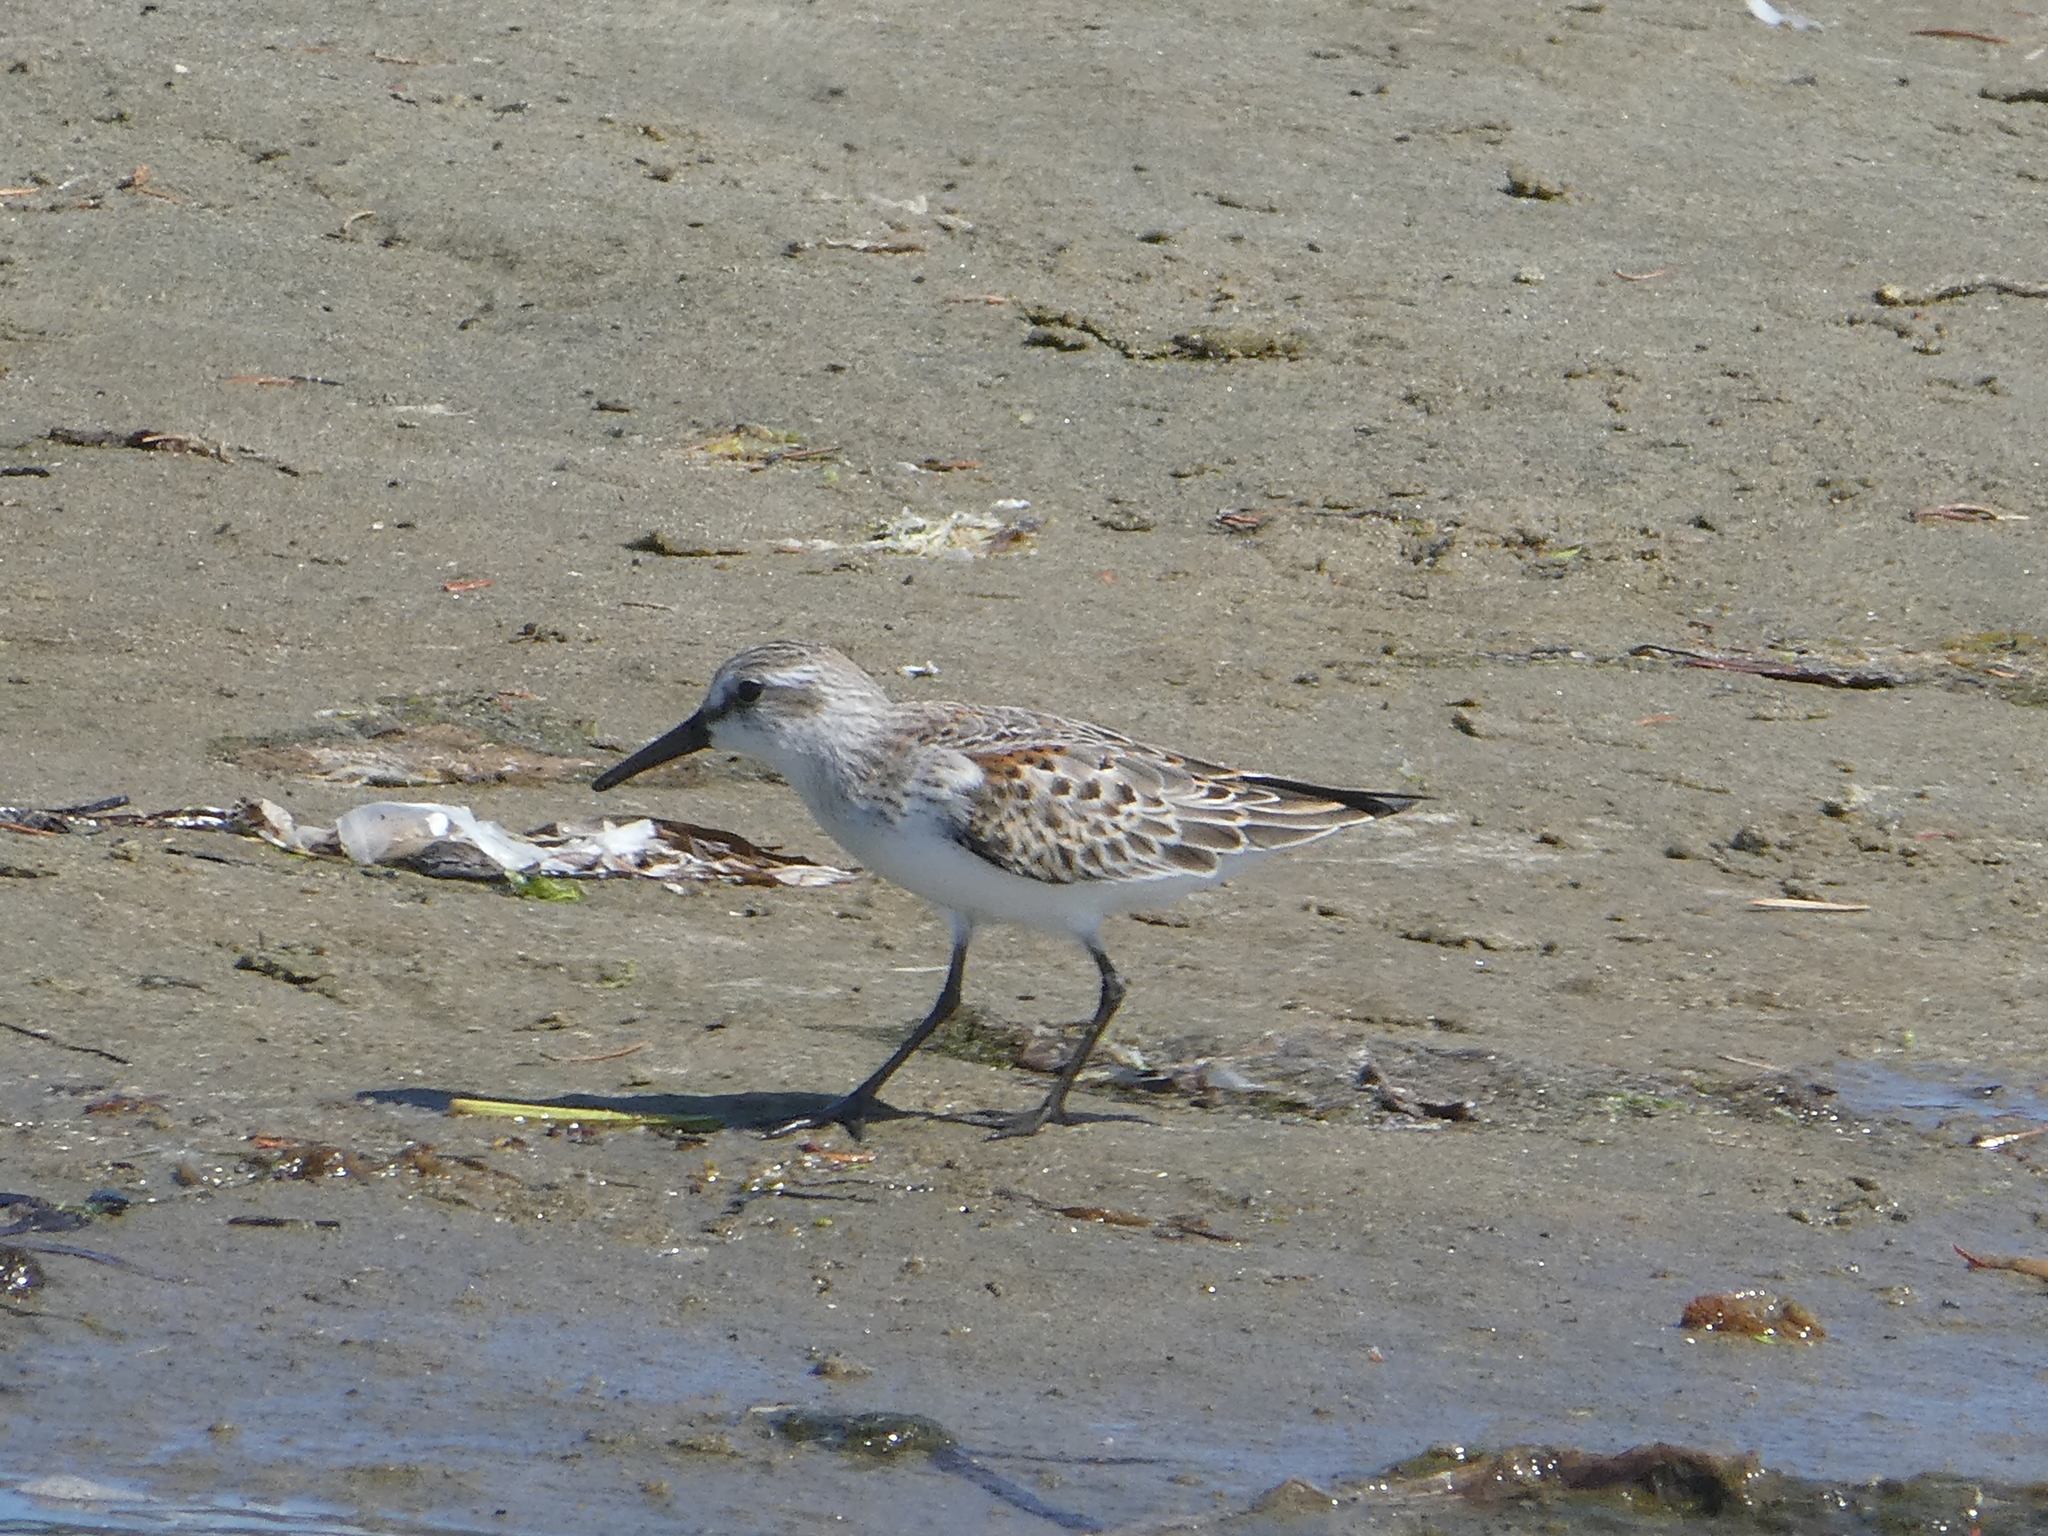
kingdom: Animalia
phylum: Chordata
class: Aves
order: Charadriiformes
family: Scolopacidae
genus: Calidris
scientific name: Calidris mauri
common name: Western sandpiper
